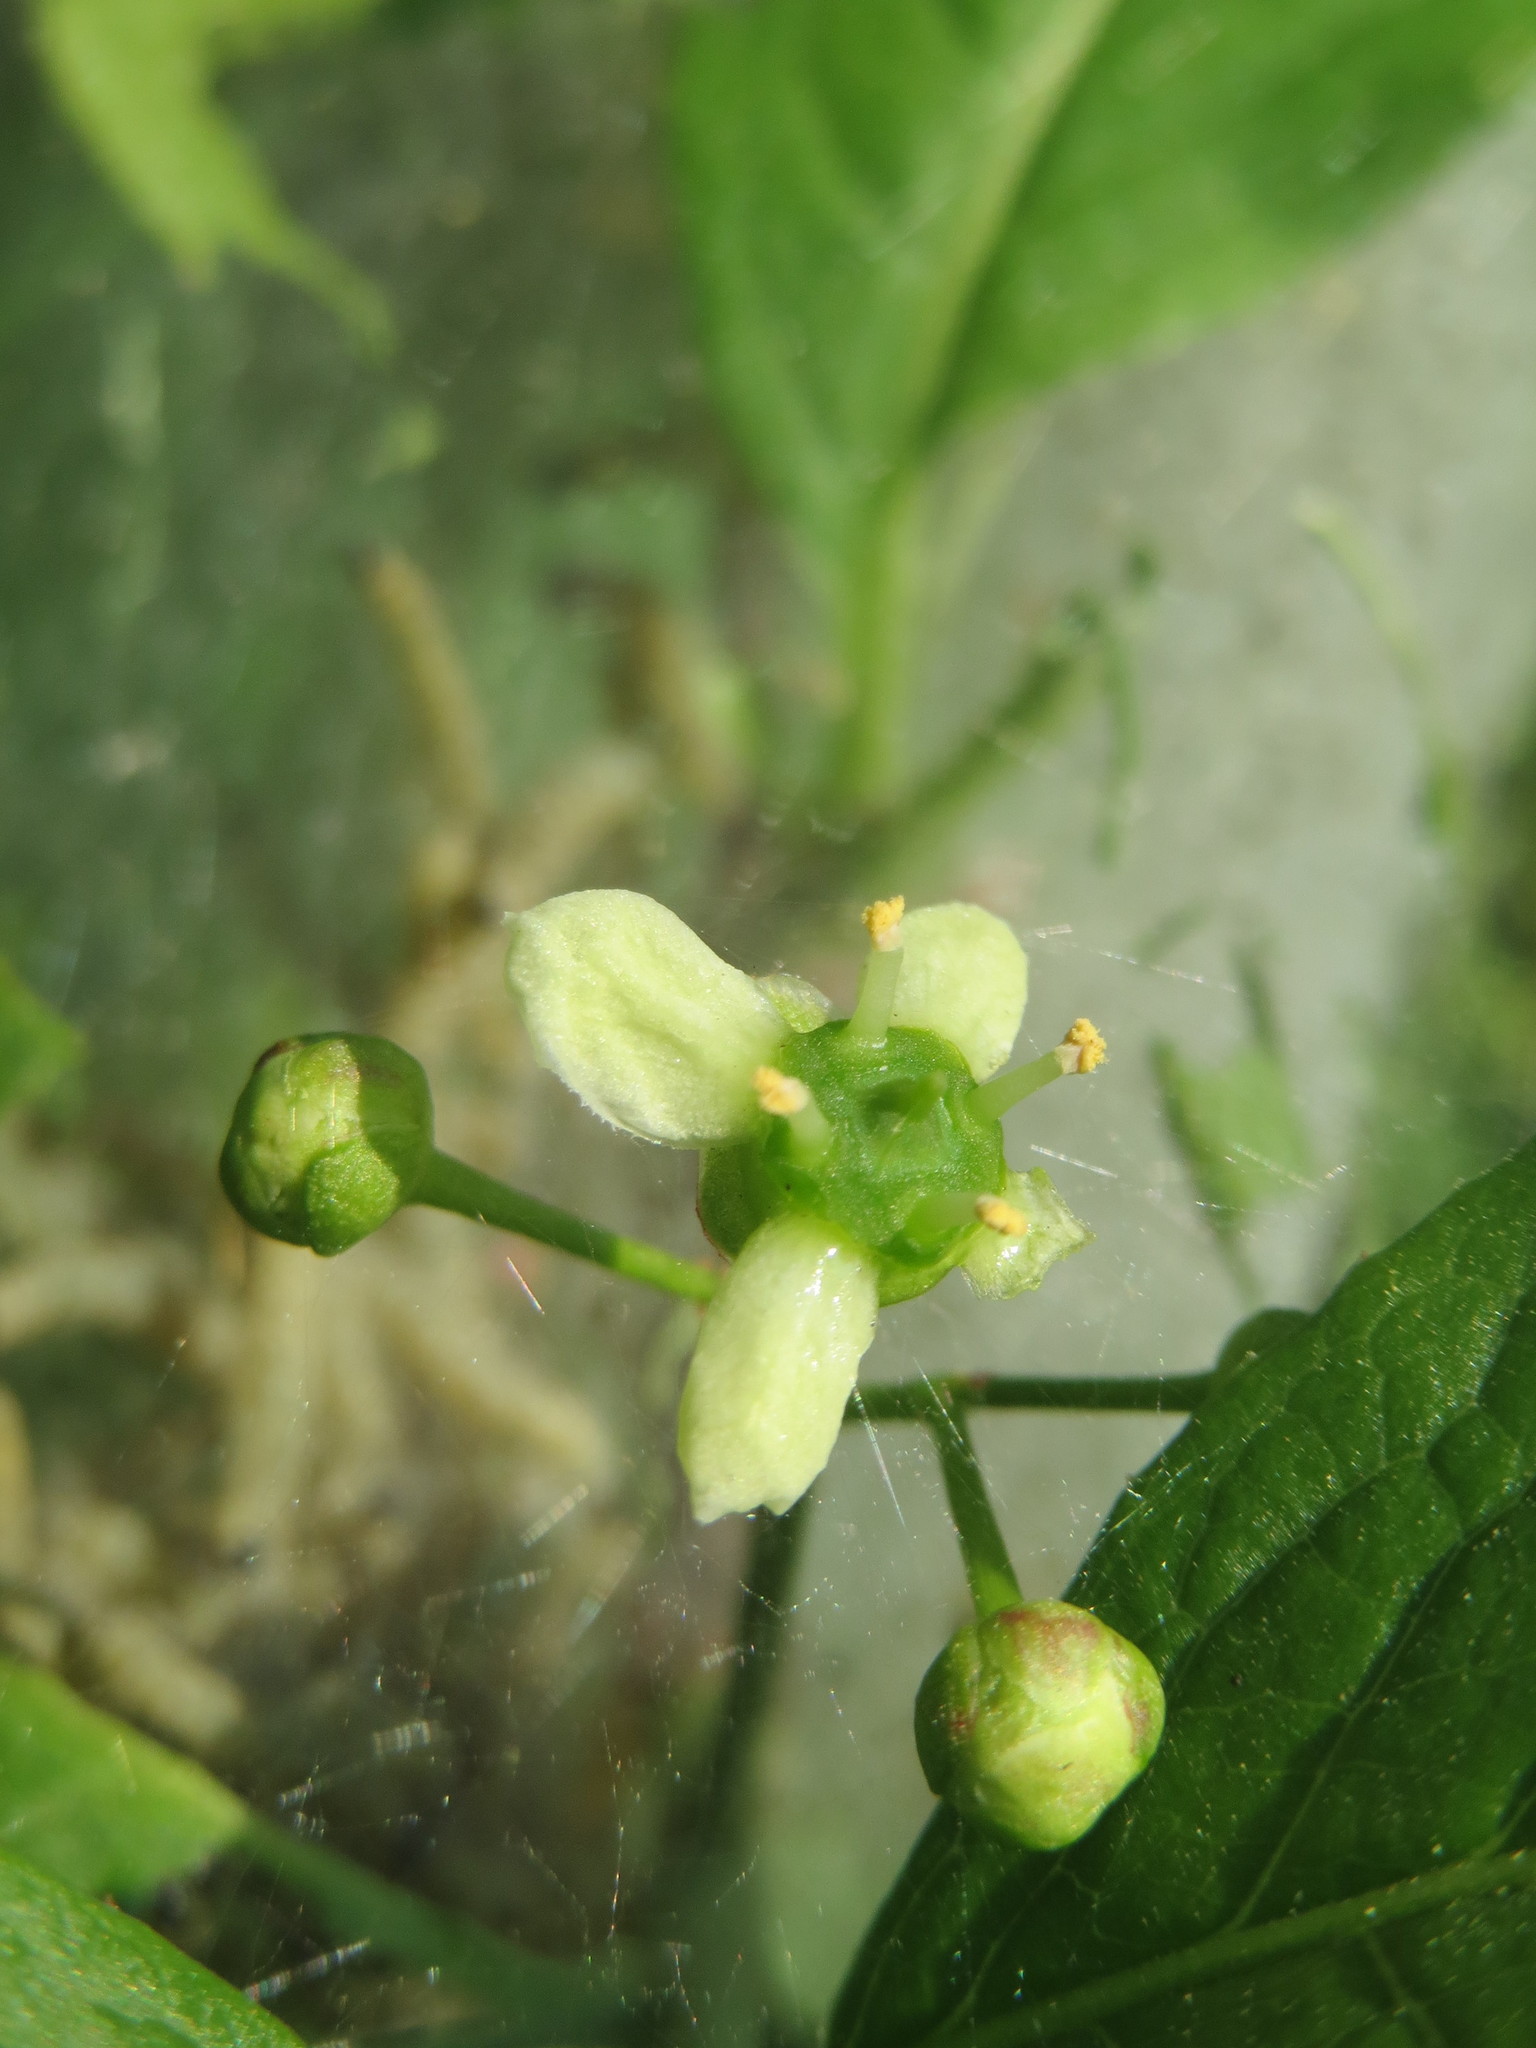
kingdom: Plantae
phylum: Tracheophyta
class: Magnoliopsida
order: Celastrales
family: Celastraceae
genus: Euonymus
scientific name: Euonymus europaeus
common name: Spindle
